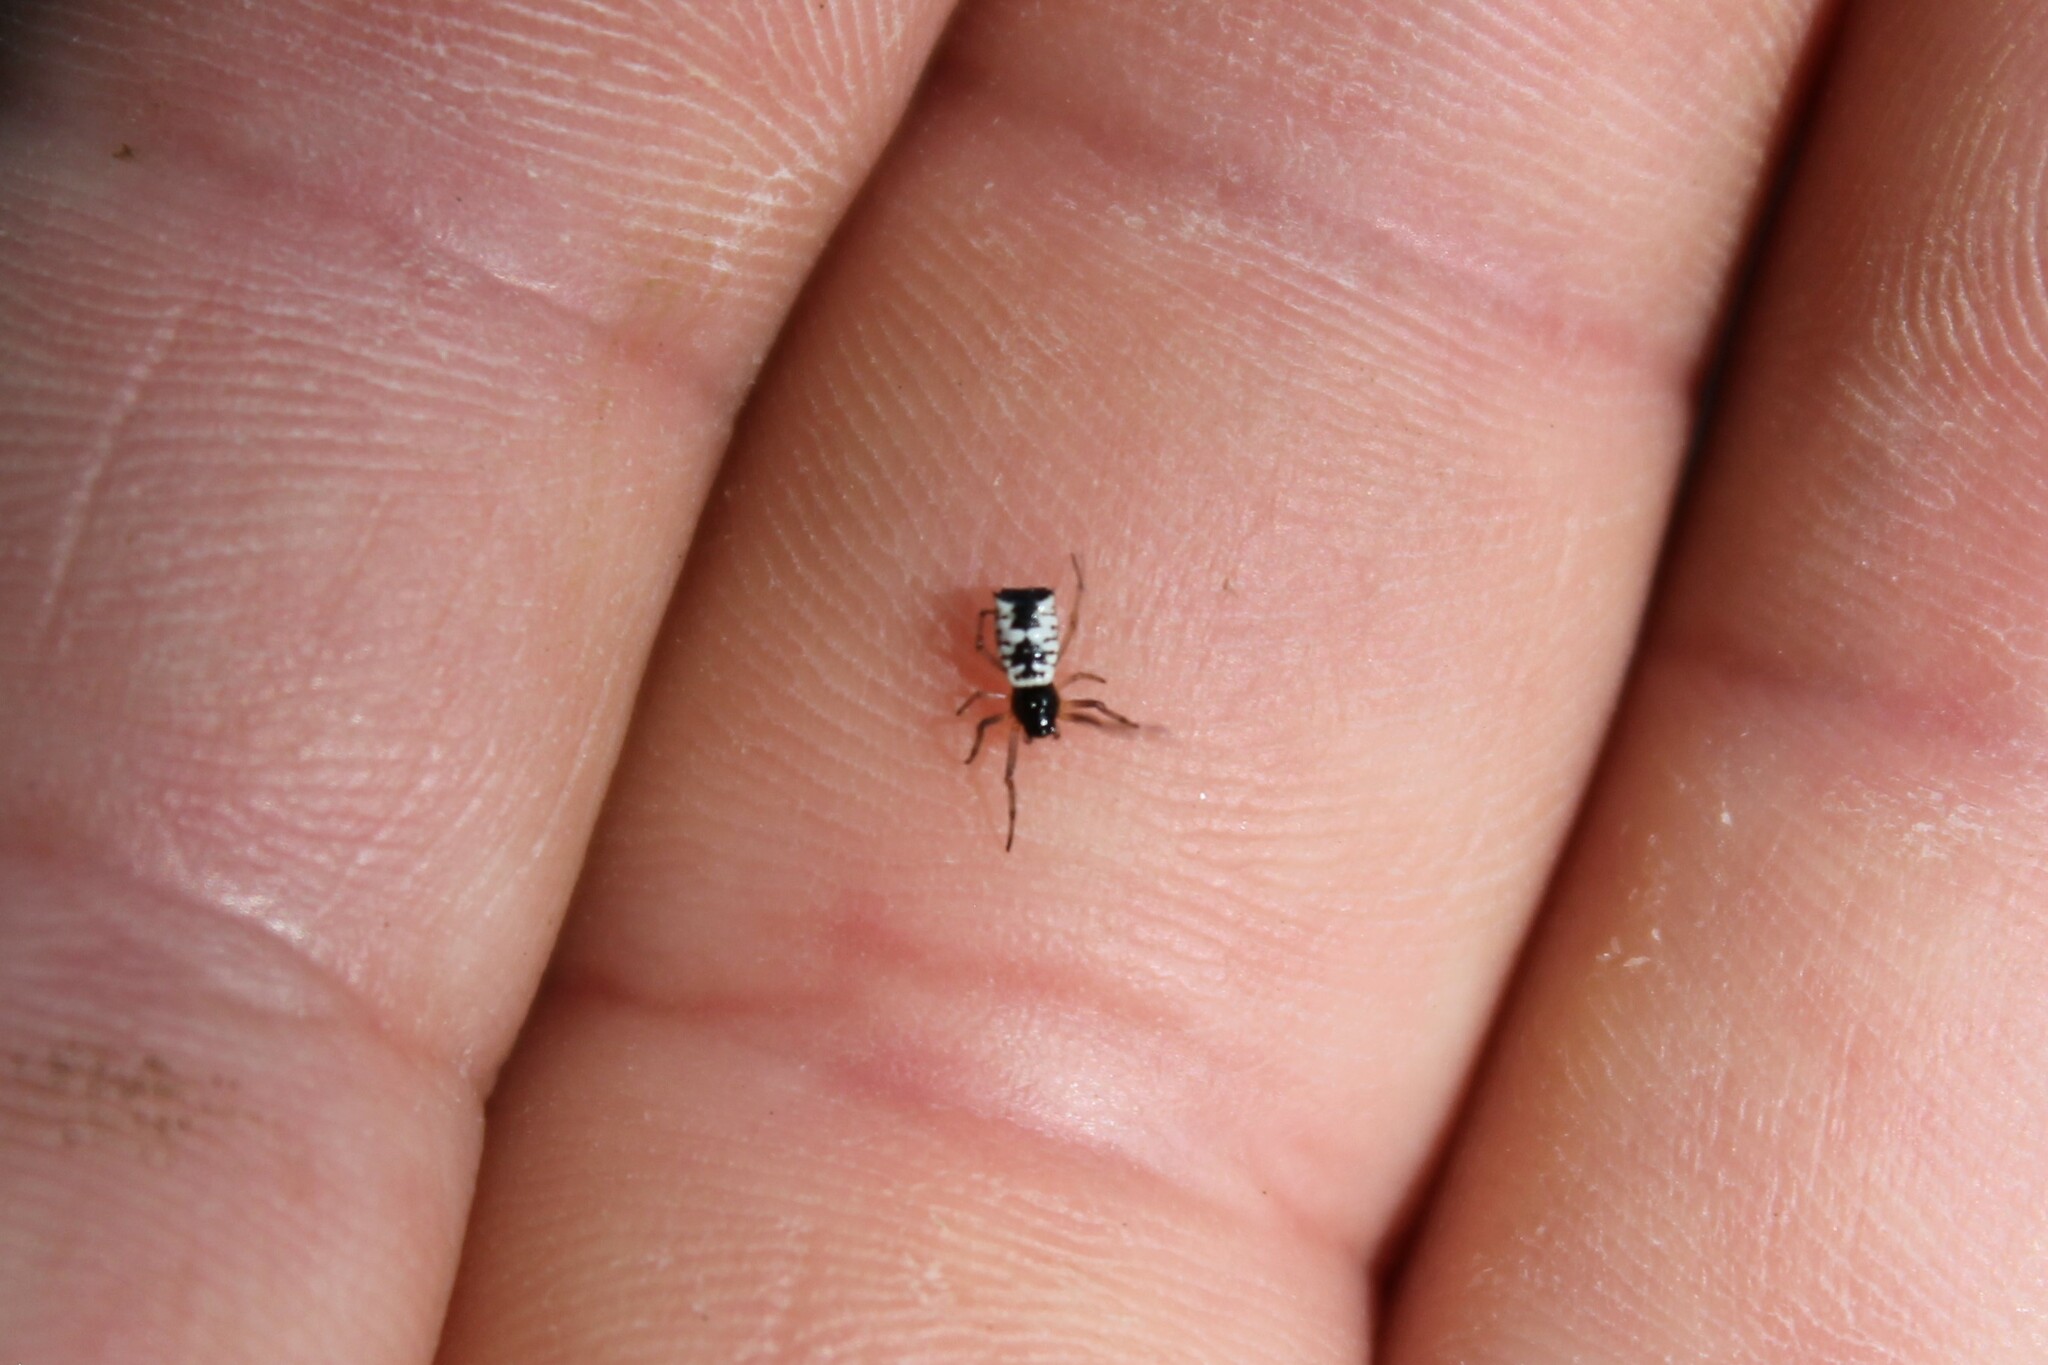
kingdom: Animalia
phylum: Arthropoda
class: Arachnida
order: Araneae
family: Araneidae
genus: Micrathena
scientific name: Micrathena mitrata
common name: Orb weavers
